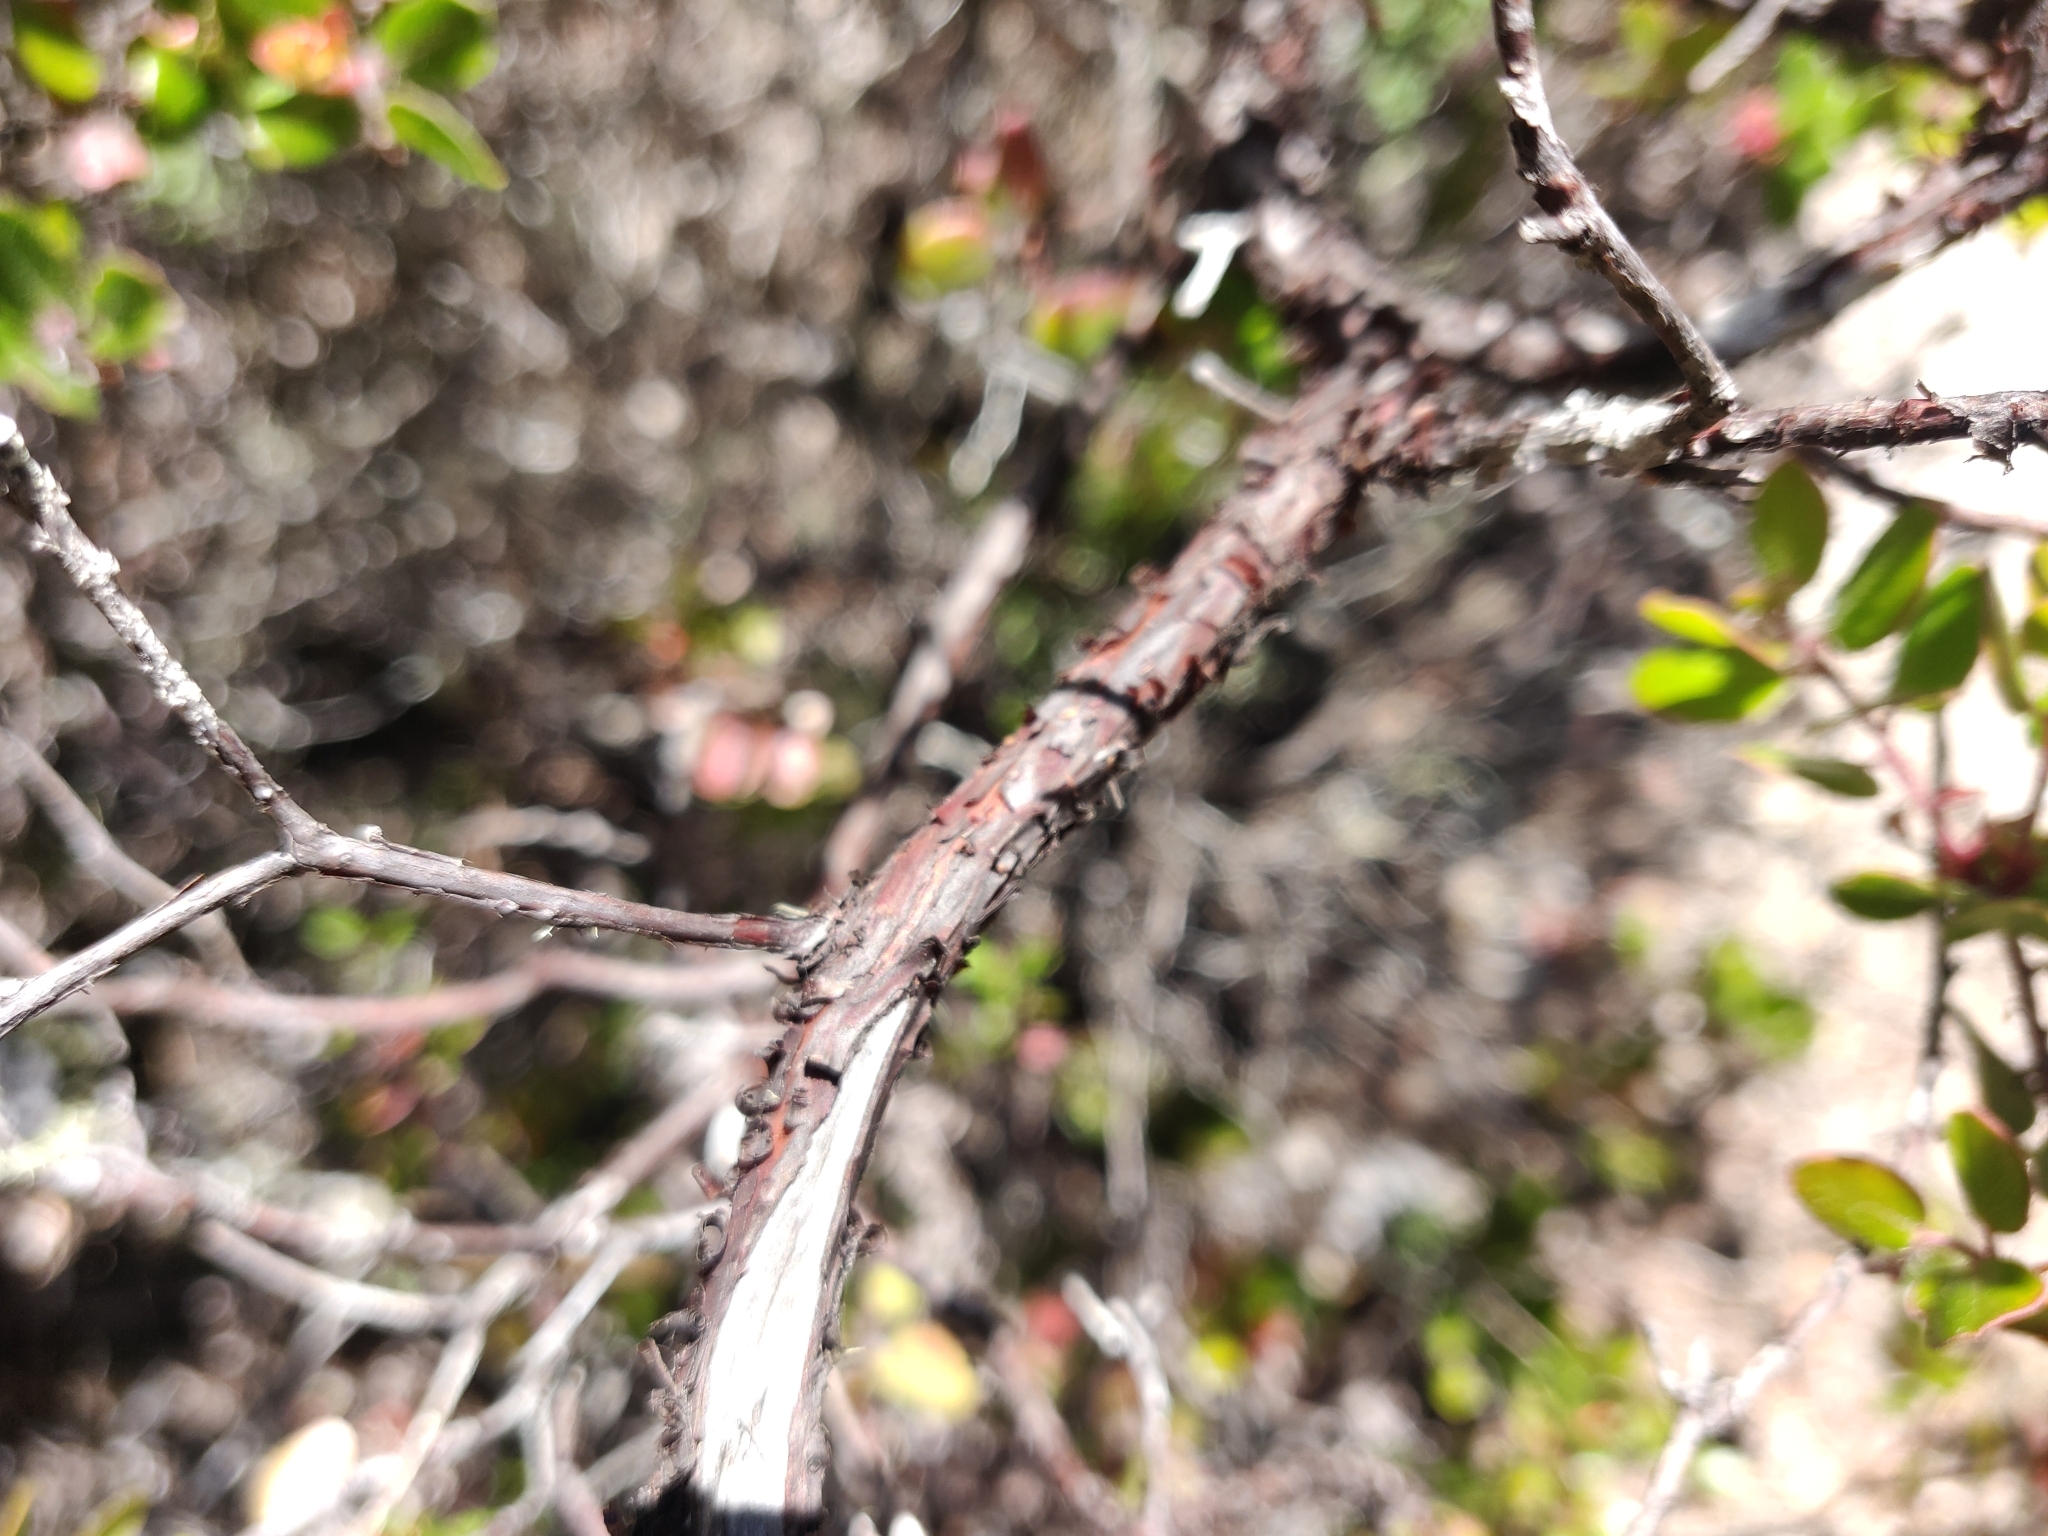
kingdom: Plantae
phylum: Tracheophyta
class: Magnoliopsida
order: Ericales
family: Ericaceae
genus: Arctostaphylos
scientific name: Arctostaphylos nummularia
